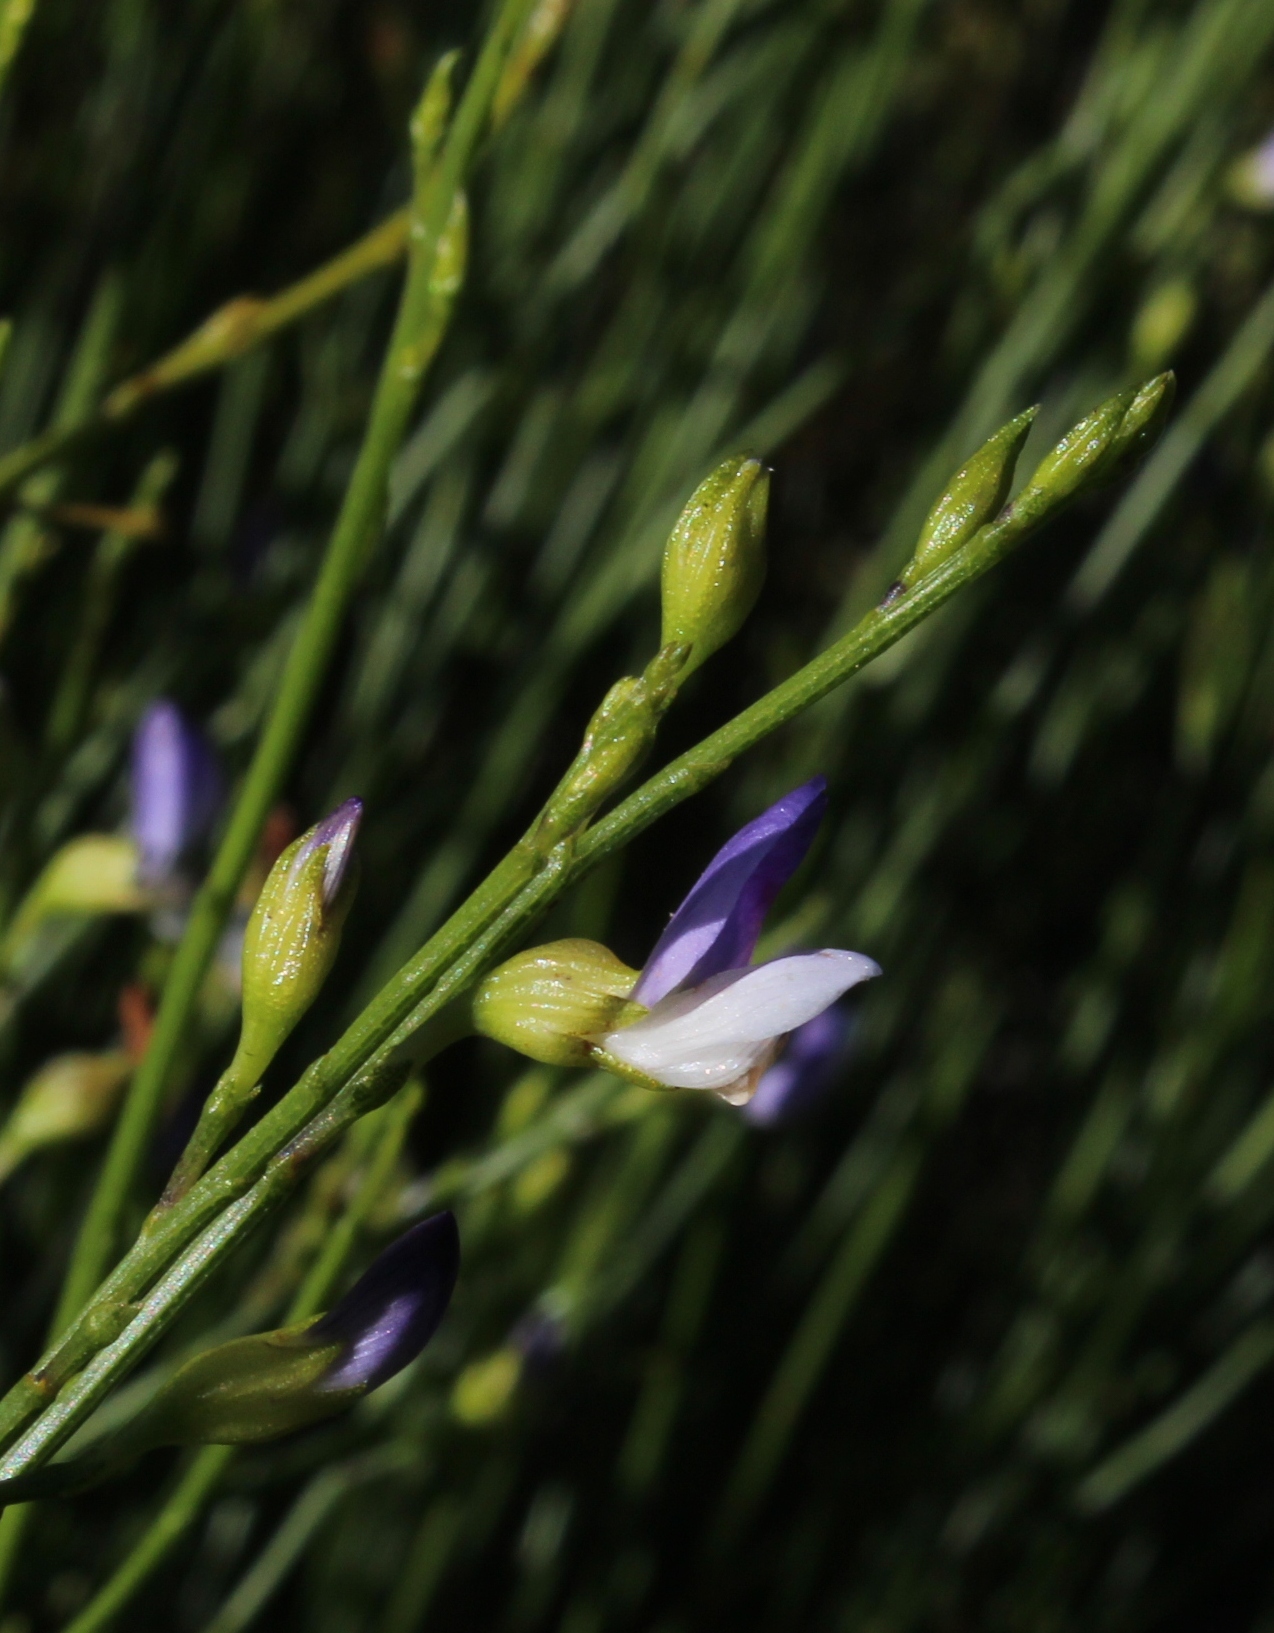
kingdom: Plantae
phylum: Tracheophyta
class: Magnoliopsida
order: Fabales
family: Fabaceae
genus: Psoralea
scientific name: Psoralea usitata
